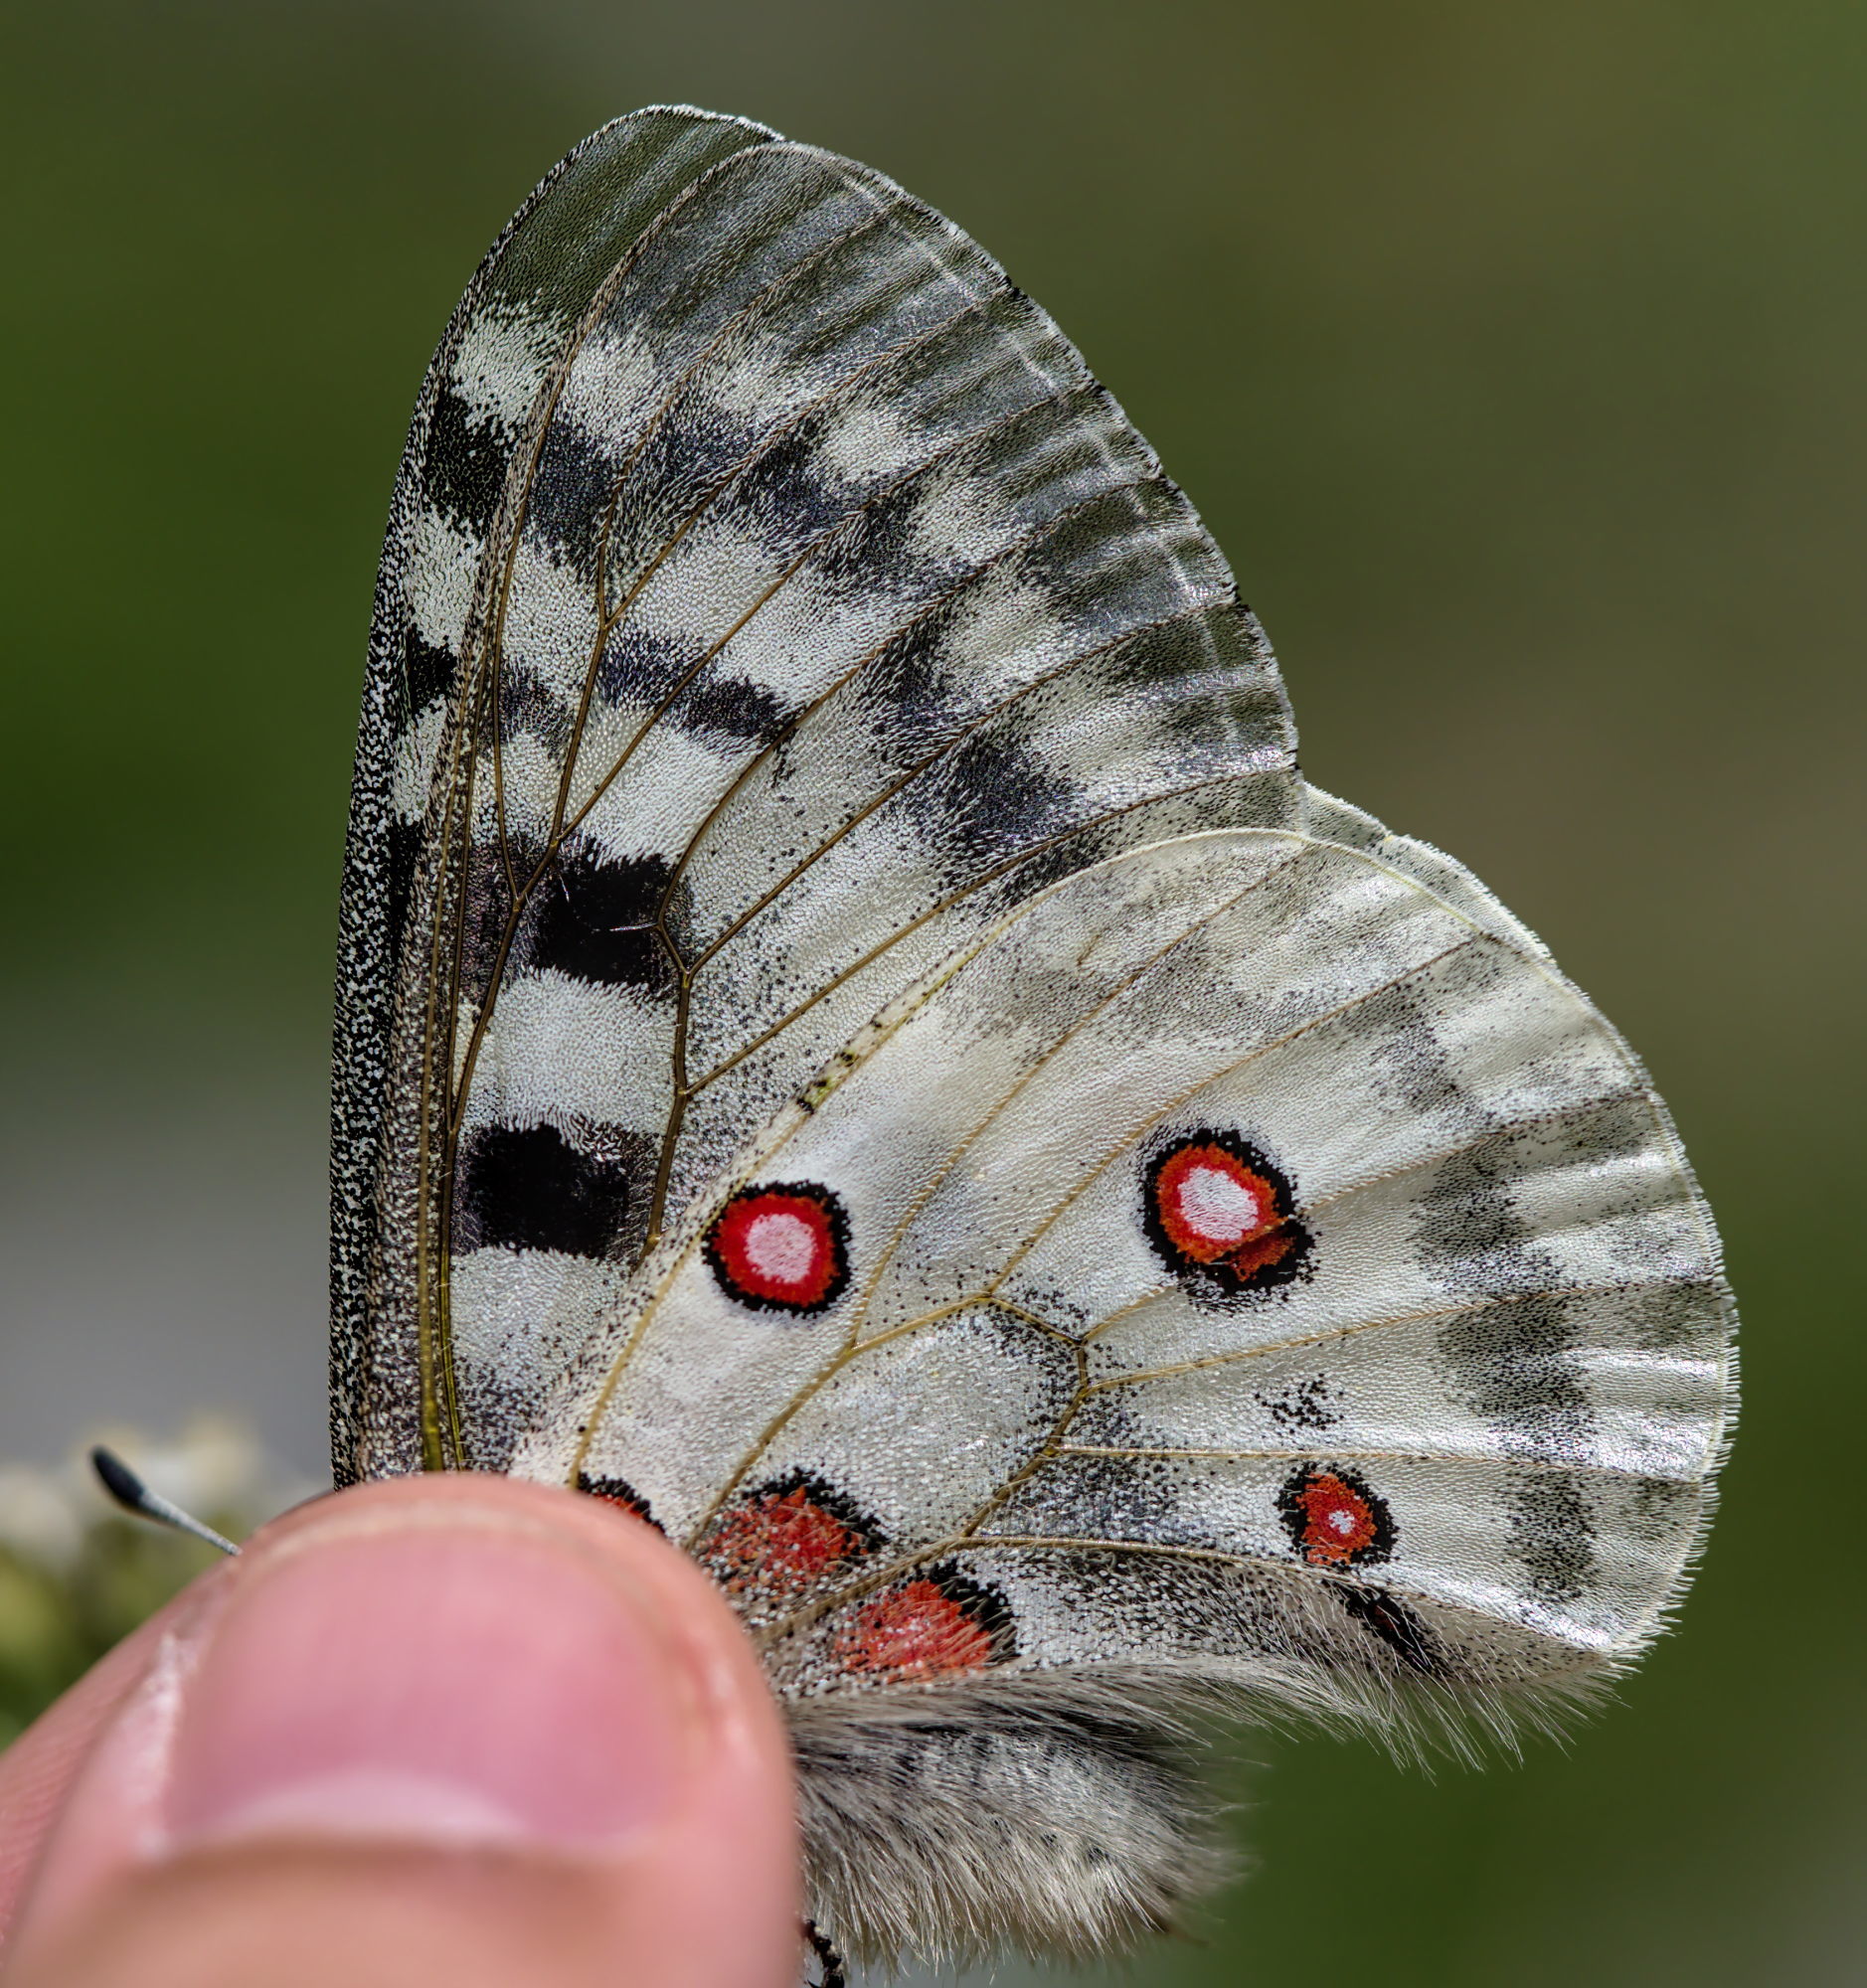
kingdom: Animalia
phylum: Arthropoda
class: Insecta
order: Lepidoptera
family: Papilionidae
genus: Parnassius
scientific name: Parnassius apollo
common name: Apollo
